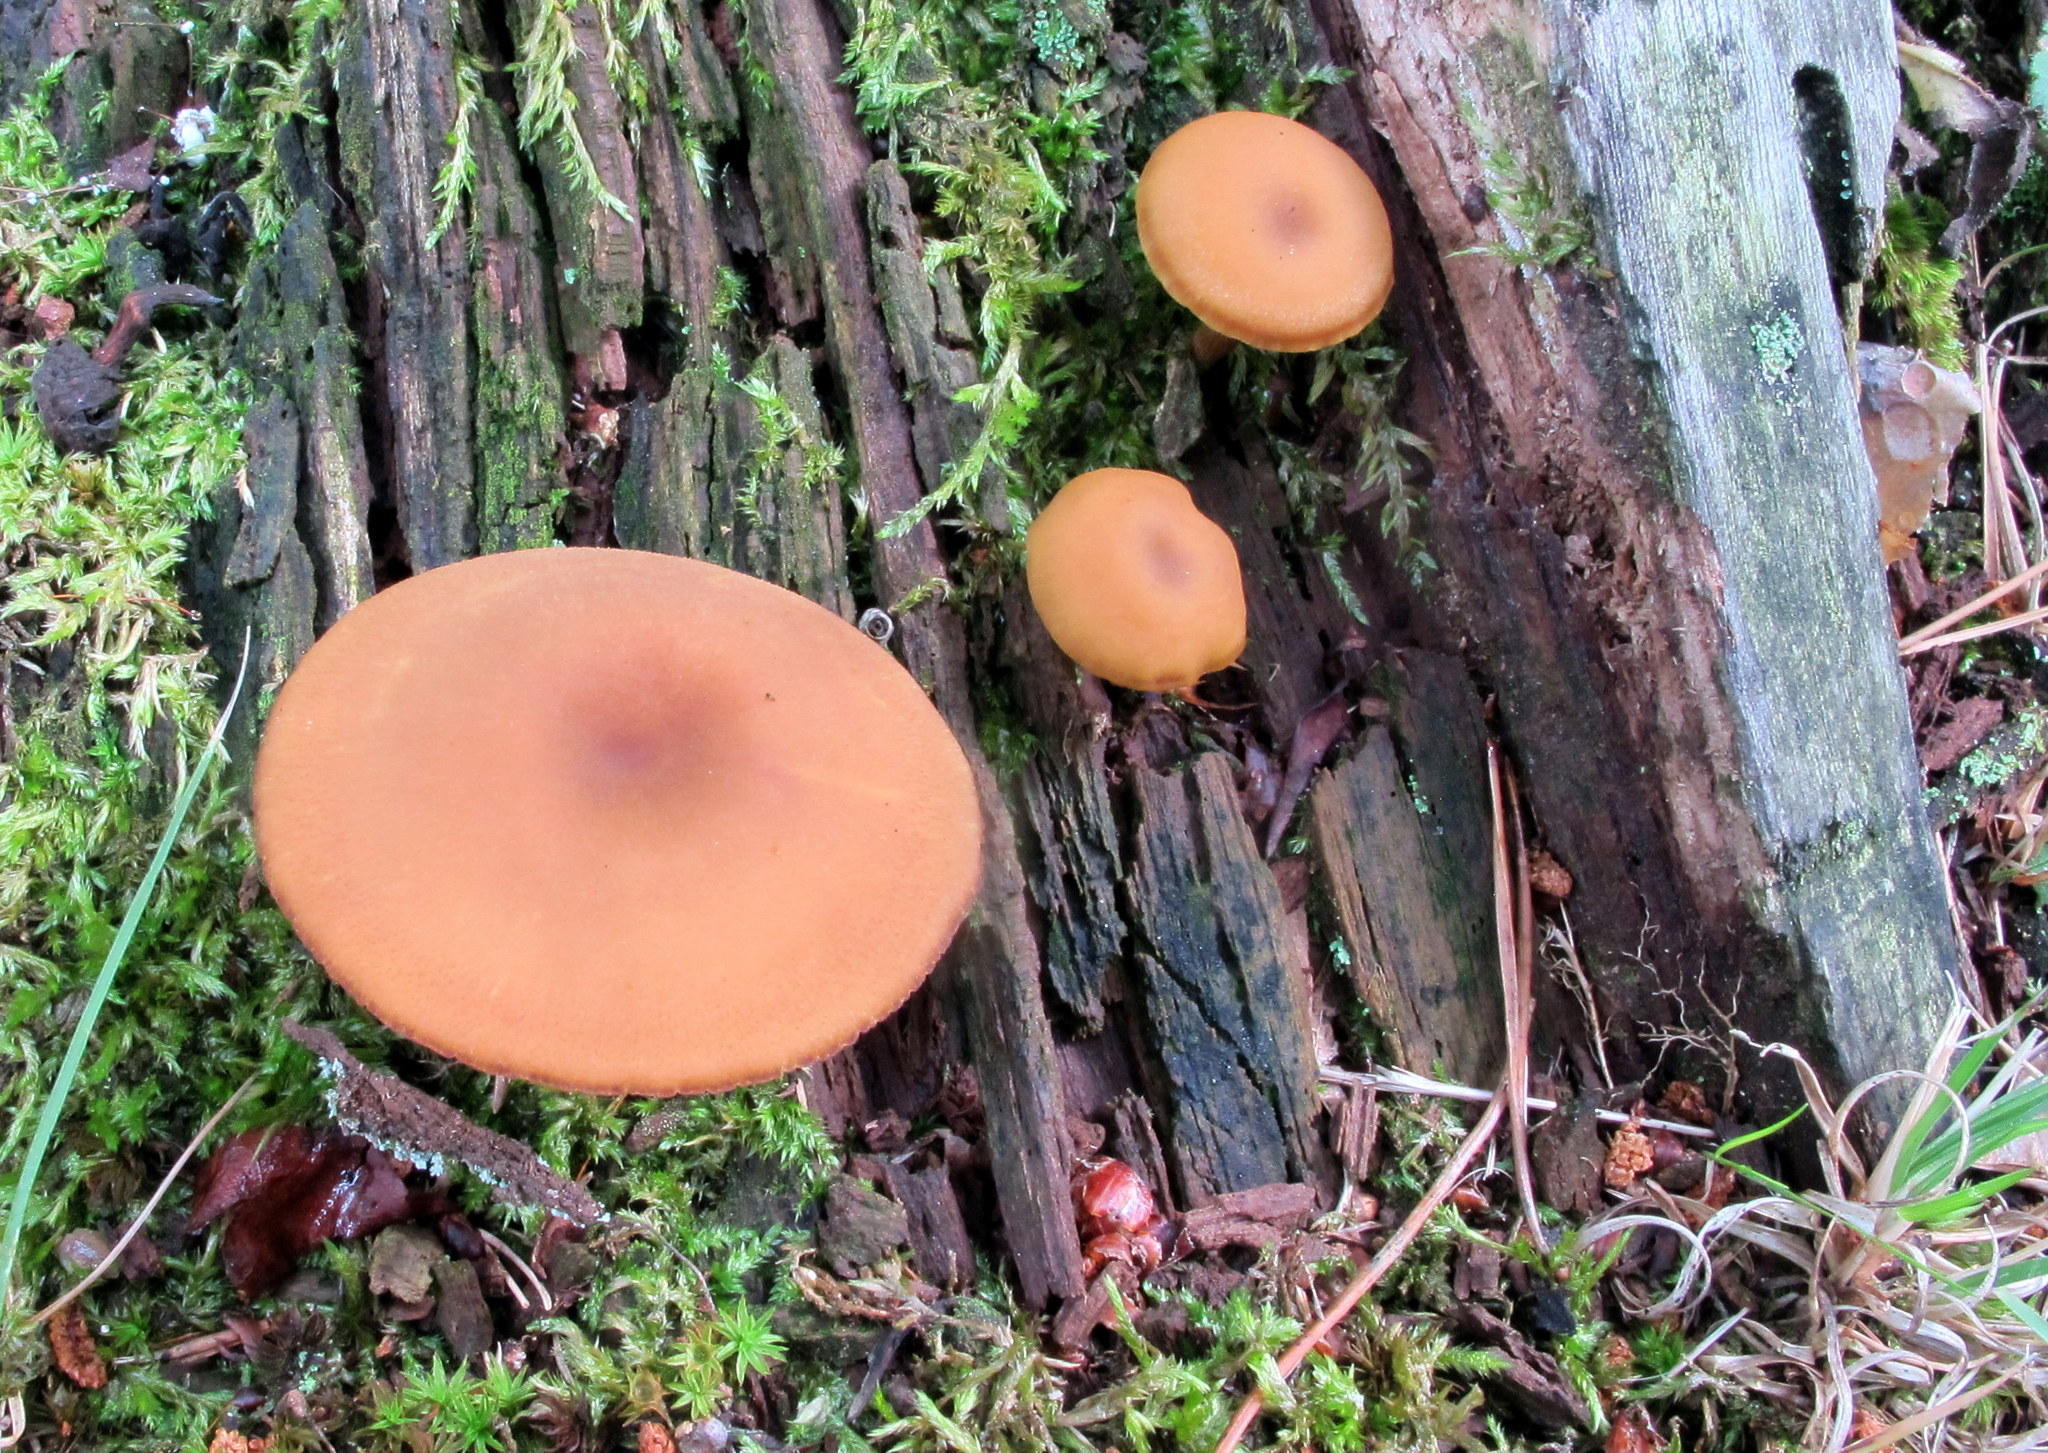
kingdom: Fungi
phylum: Basidiomycota
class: Agaricomycetes
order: Agaricales
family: Callistosporiaceae
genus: Callistosporium
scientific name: Callistosporium luteo-olivaceum
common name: Olive lute
